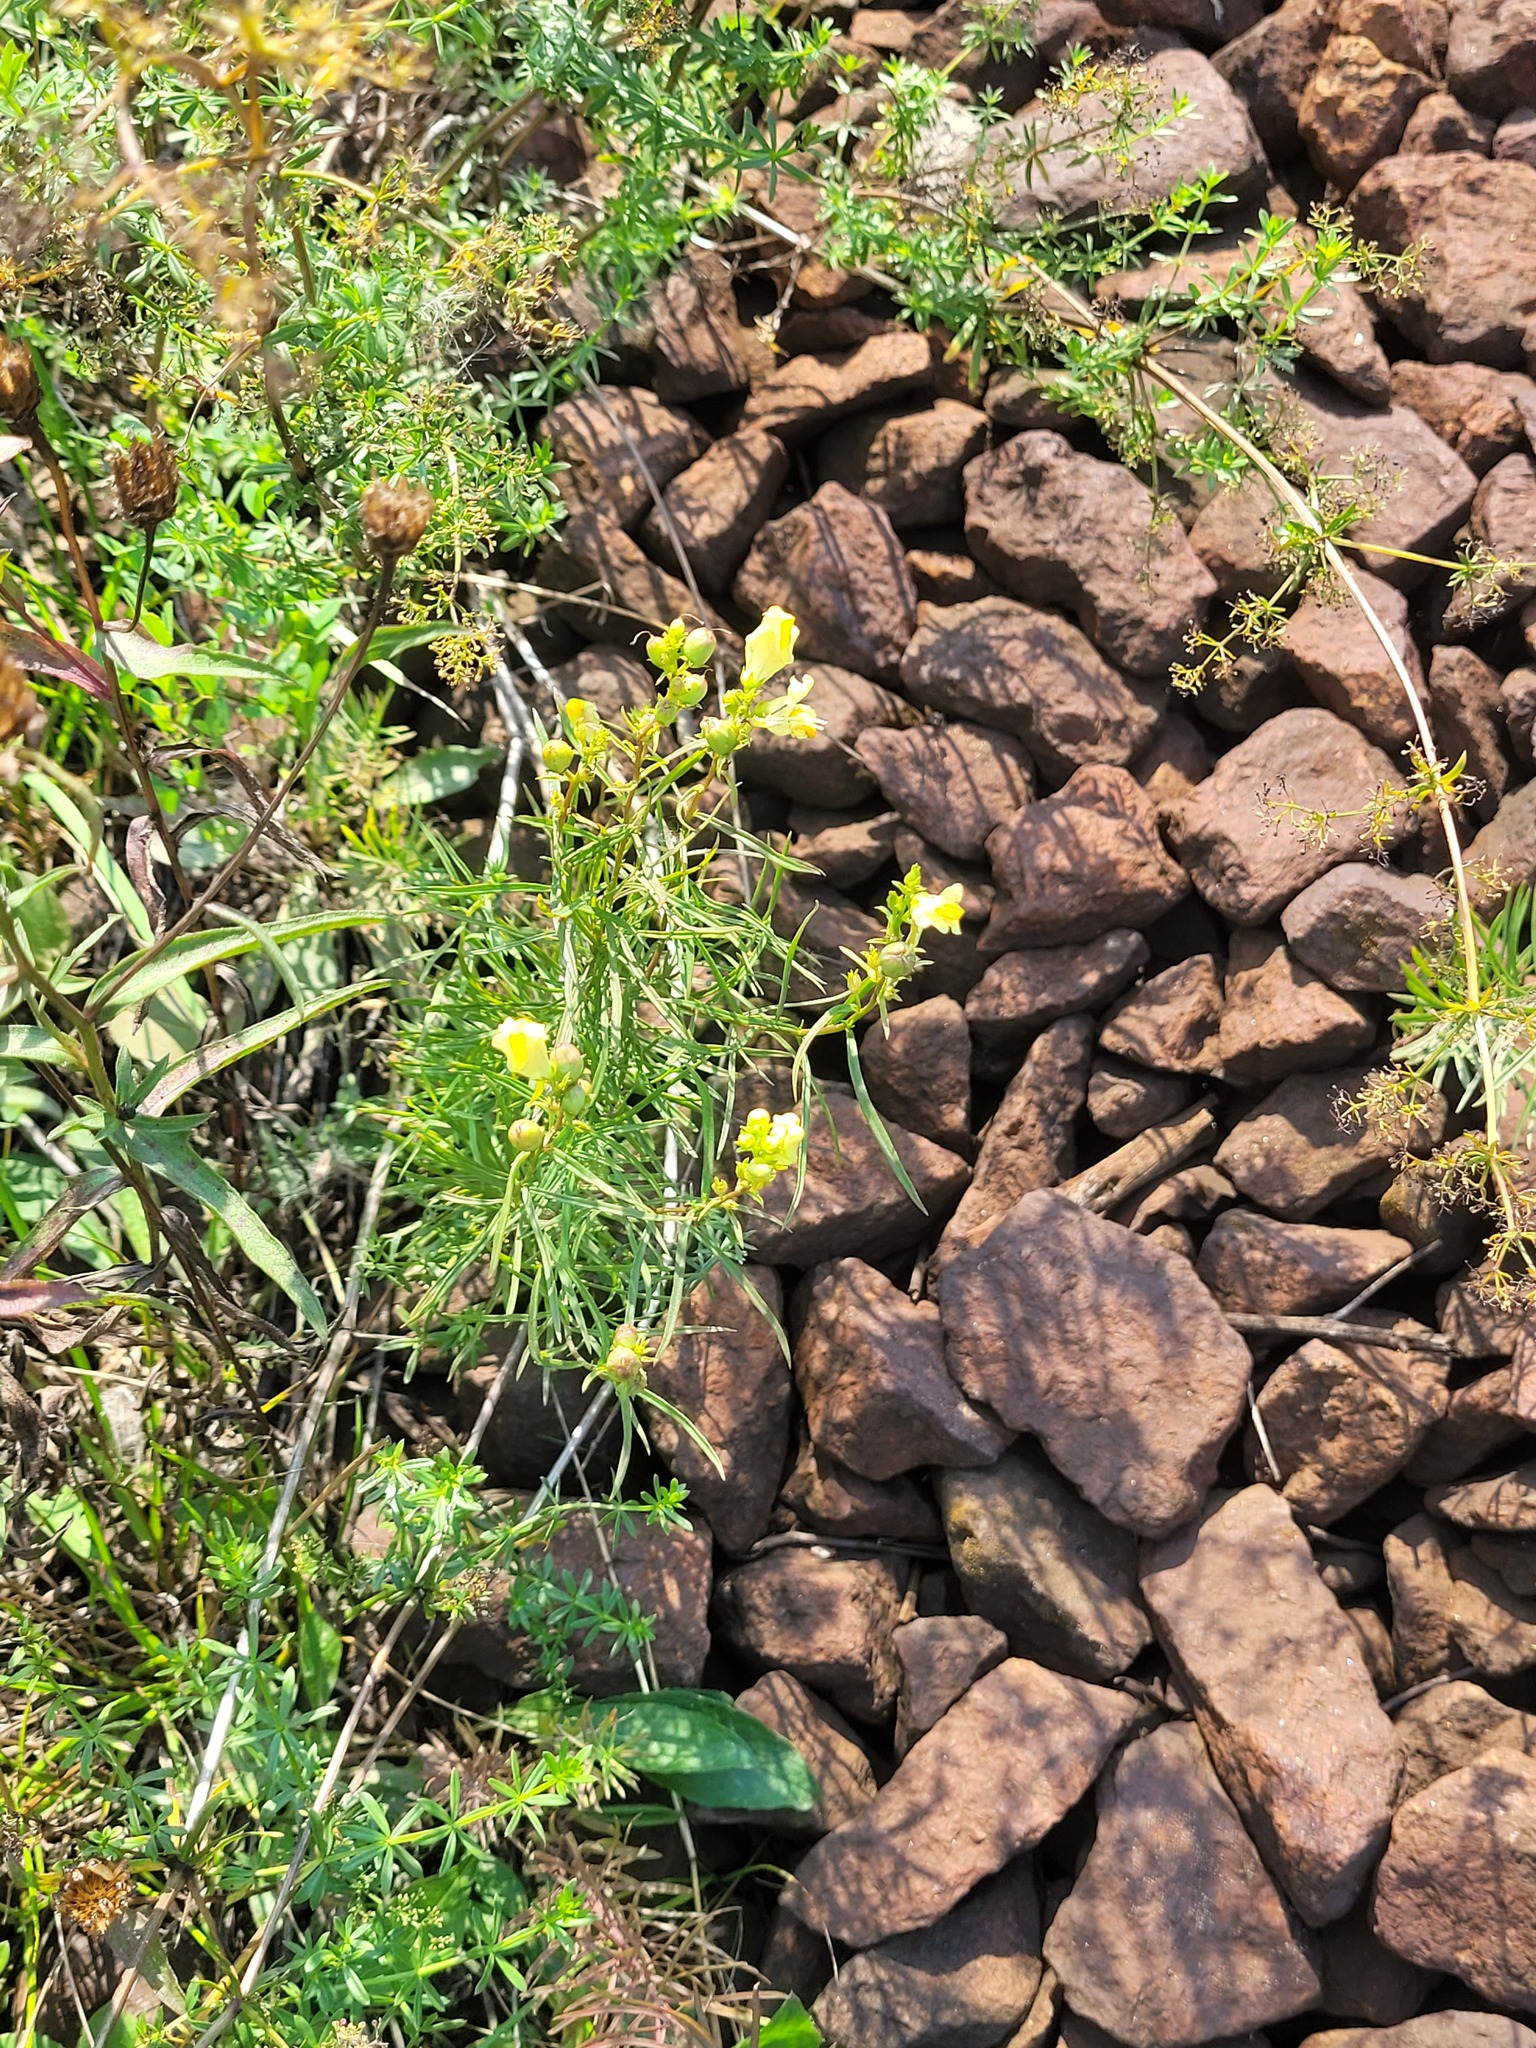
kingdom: Plantae
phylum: Tracheophyta
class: Magnoliopsida
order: Lamiales
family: Plantaginaceae
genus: Linaria
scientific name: Linaria vulgaris
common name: Butter and eggs
